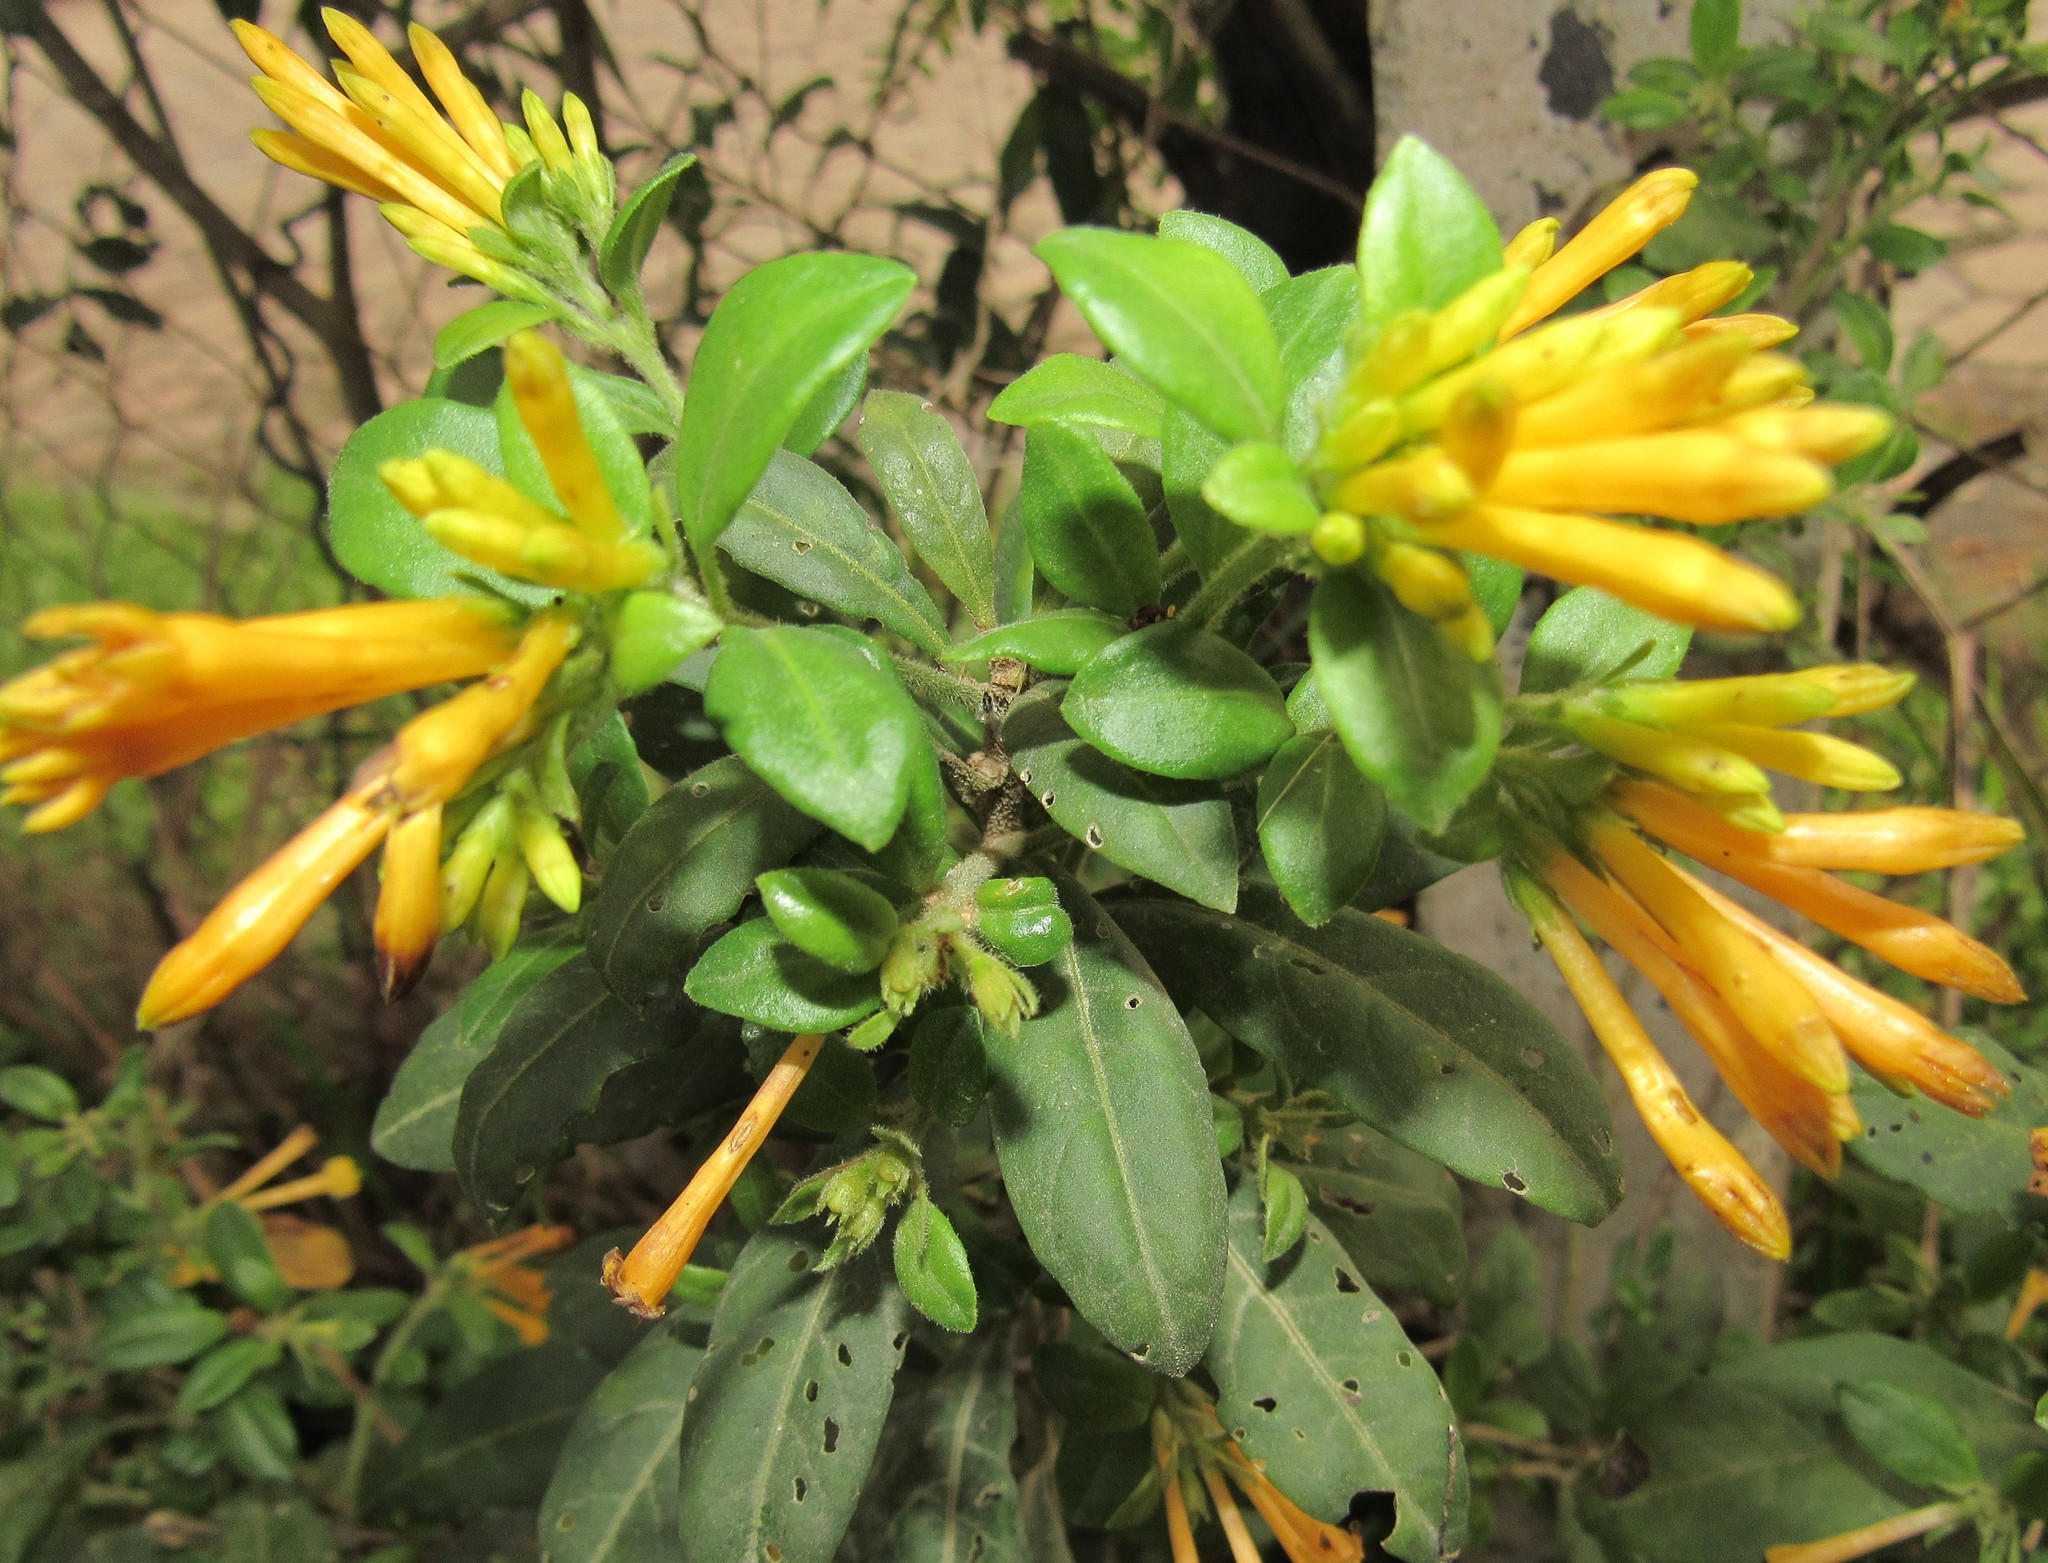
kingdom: Plantae
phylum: Tracheophyta
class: Magnoliopsida
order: Solanales
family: Solanaceae
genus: Cestrum
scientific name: Cestrum corymbosum
